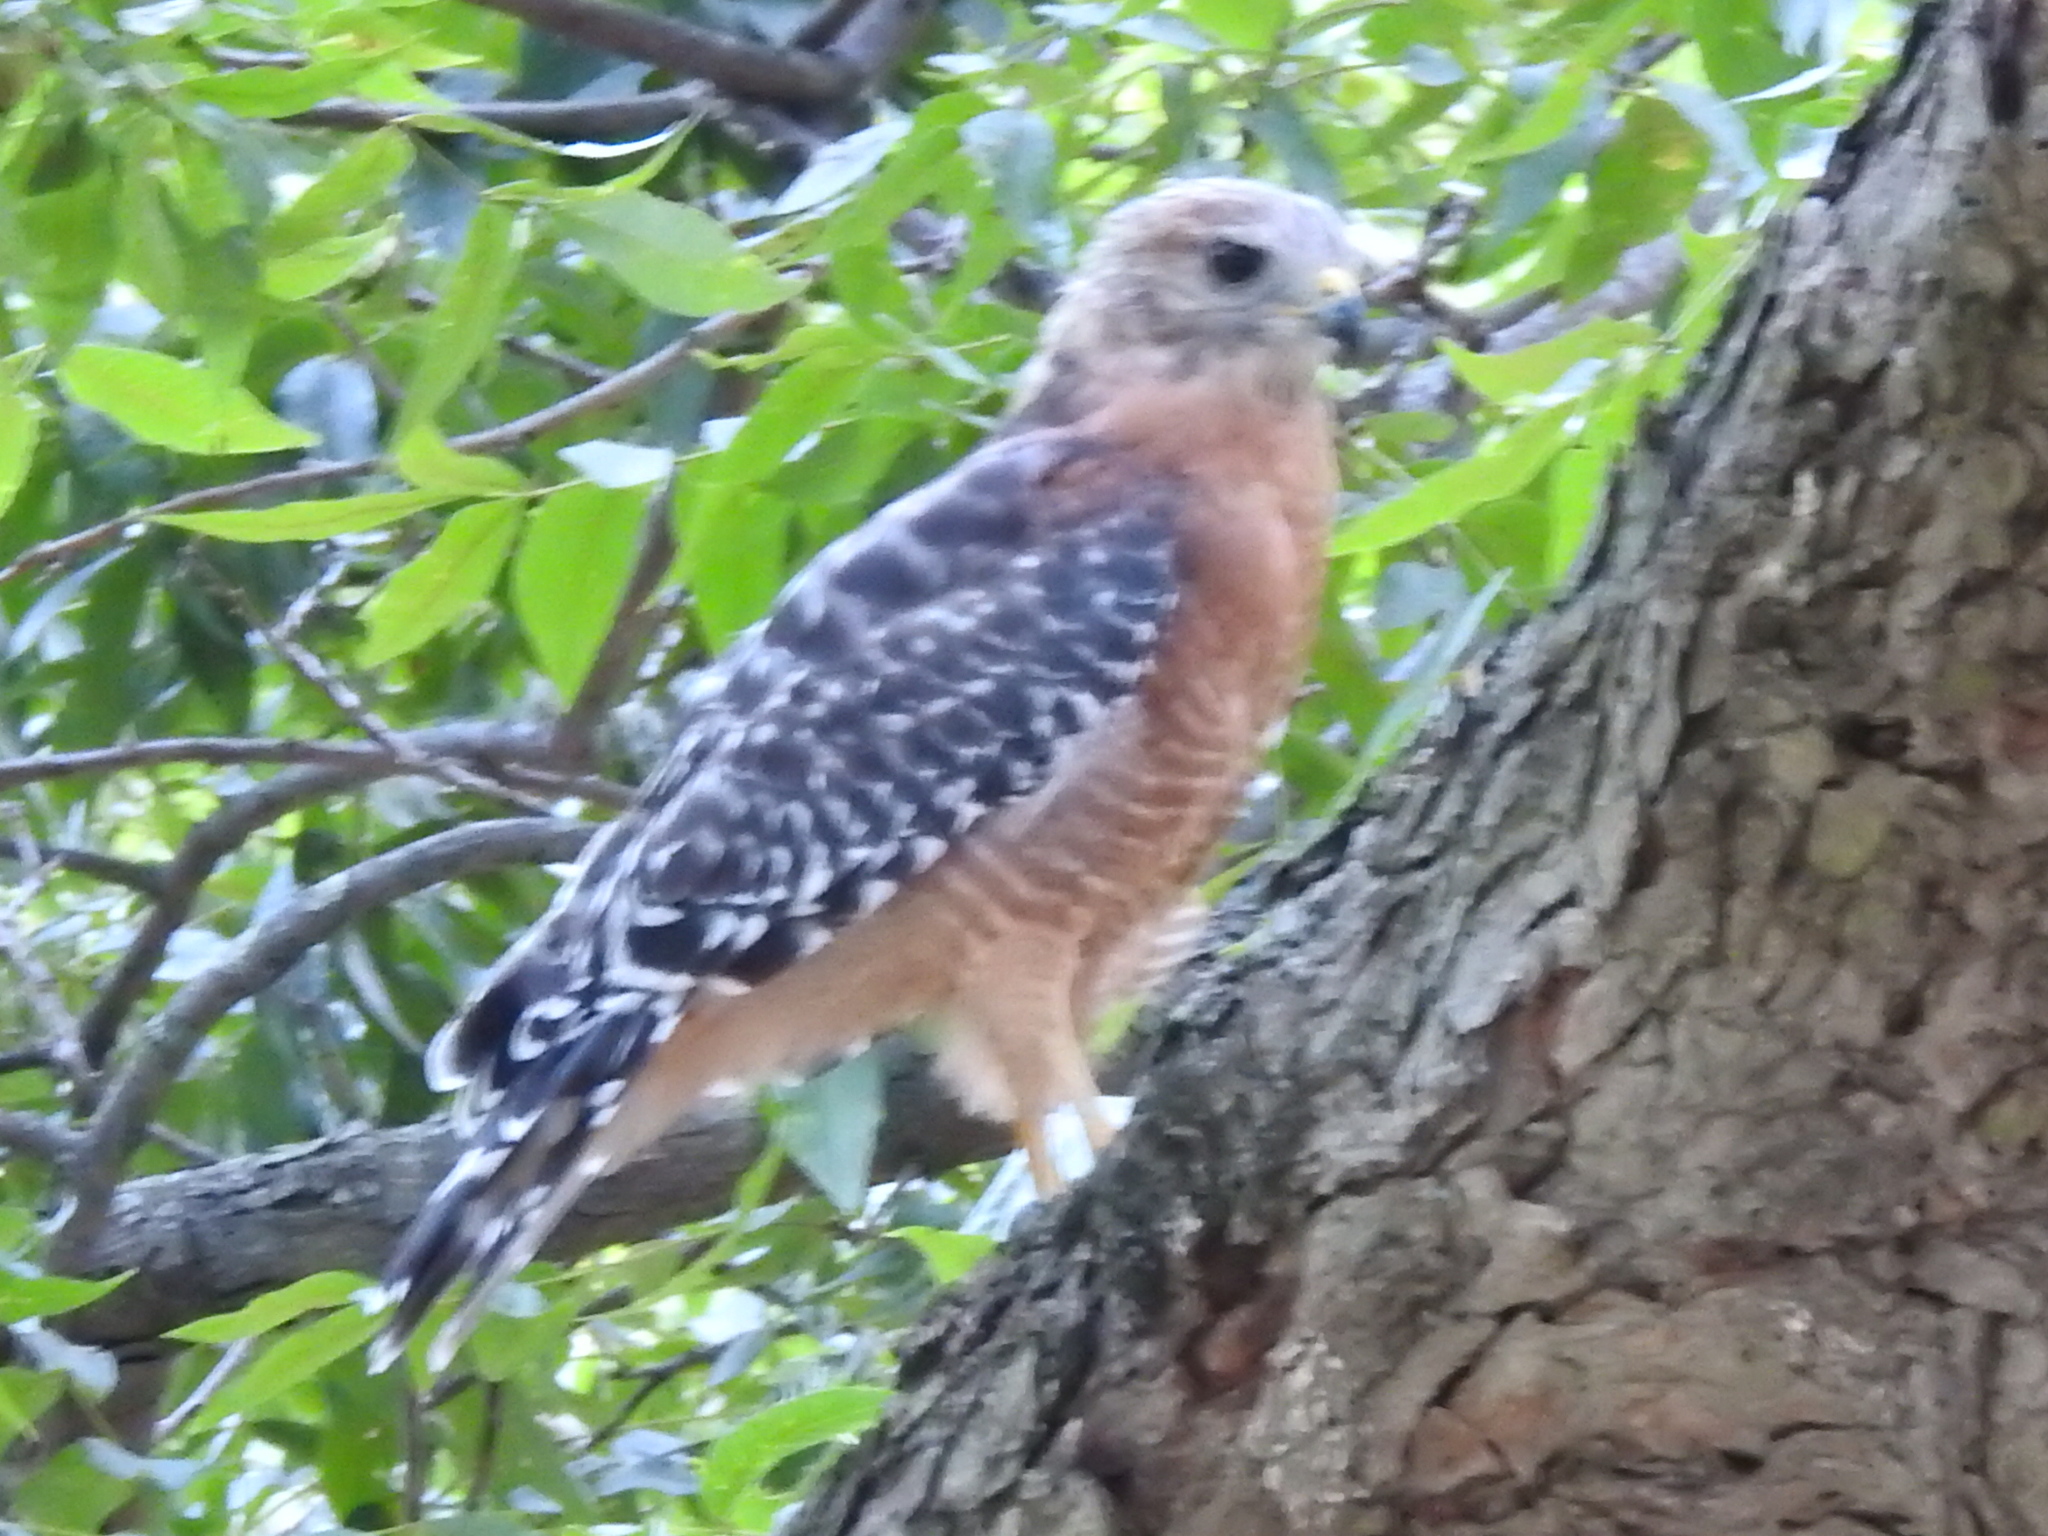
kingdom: Animalia
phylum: Chordata
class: Aves
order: Accipitriformes
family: Accipitridae
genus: Buteo
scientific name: Buteo lineatus
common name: Red-shouldered hawk
